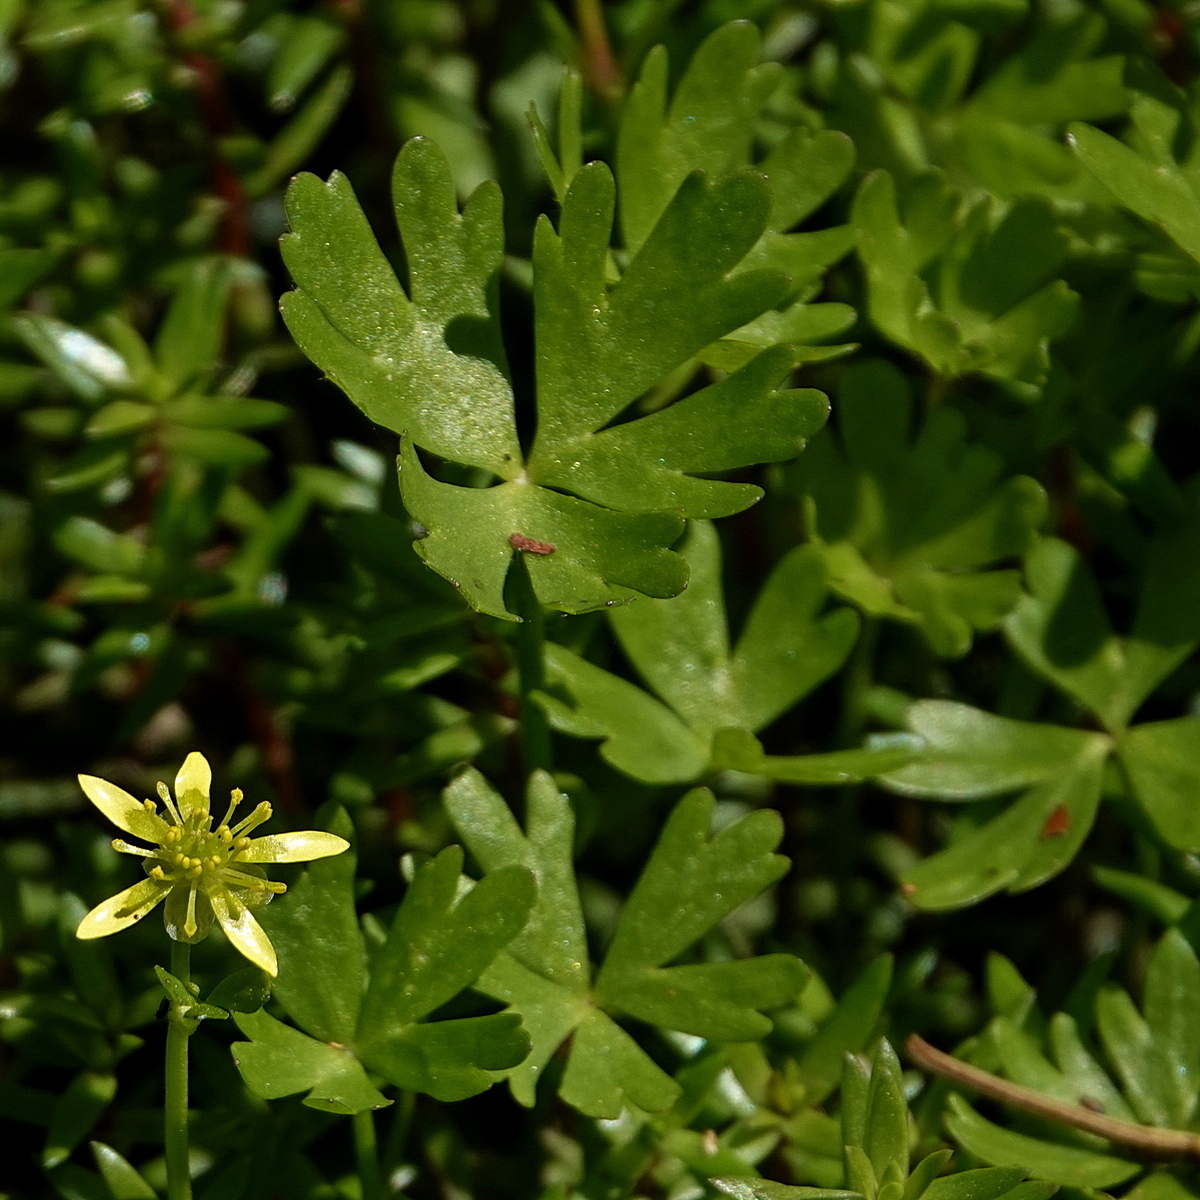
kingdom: Plantae
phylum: Tracheophyta
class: Magnoliopsida
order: Ranunculales
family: Ranunculaceae
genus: Ranunculus
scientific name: Ranunculus amphitrichus
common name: Small river buttercup
